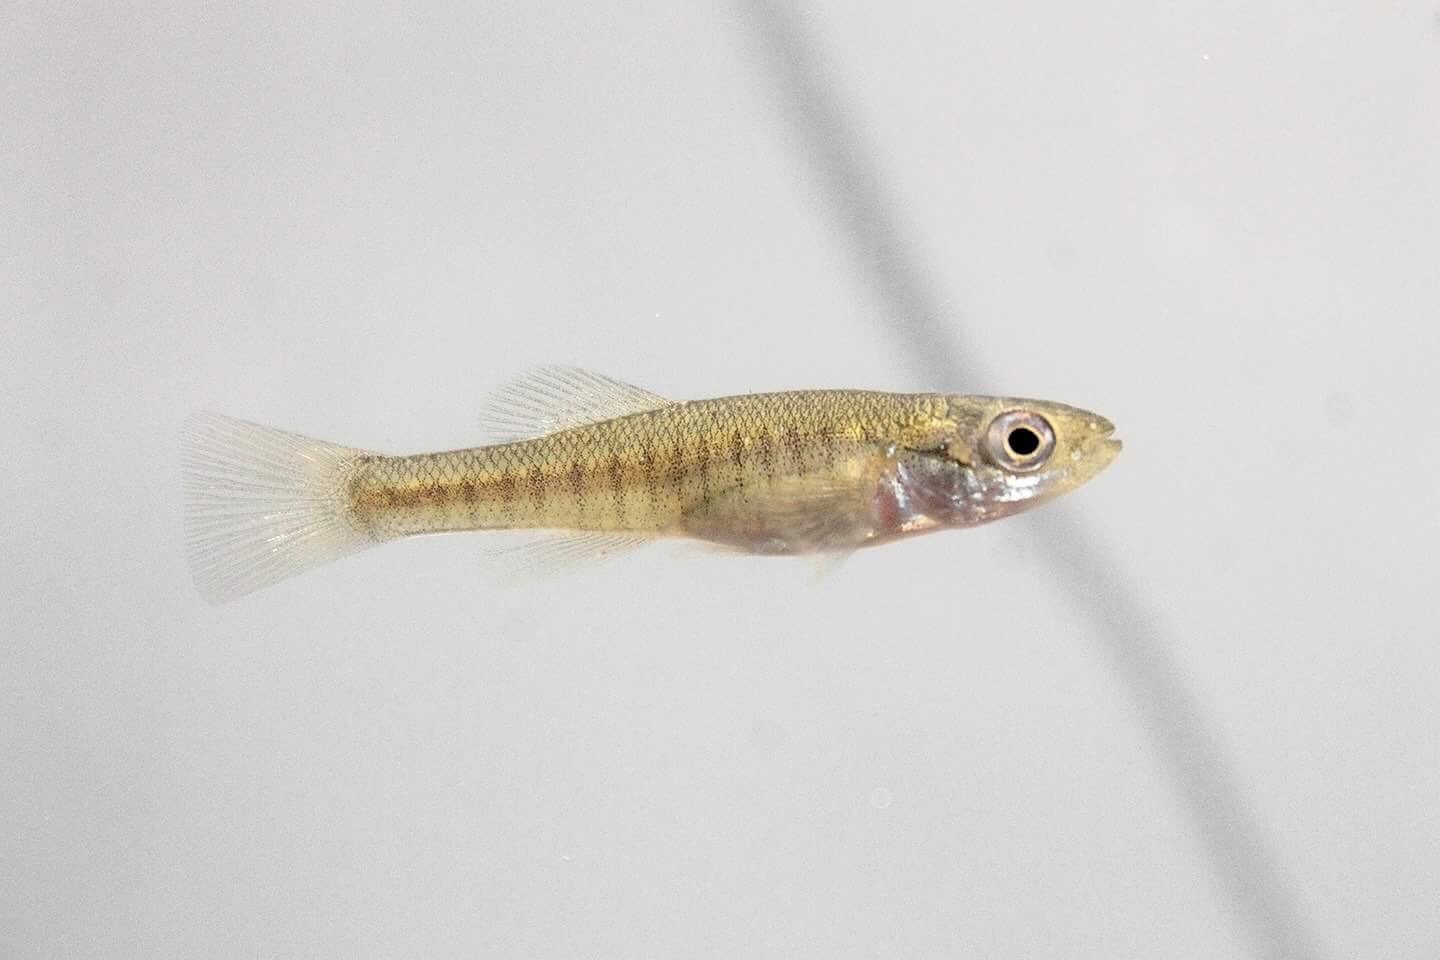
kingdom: Animalia
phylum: Chordata
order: Cyprinodontiformes
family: Fundulidae
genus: Fundulus
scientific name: Fundulus diaphanus
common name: Banded killifish
